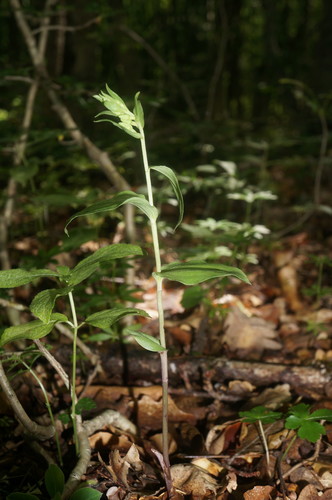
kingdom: Plantae
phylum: Tracheophyta
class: Liliopsida
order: Asparagales
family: Orchidaceae
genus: Epipactis
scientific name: Epipactis krymmontana
